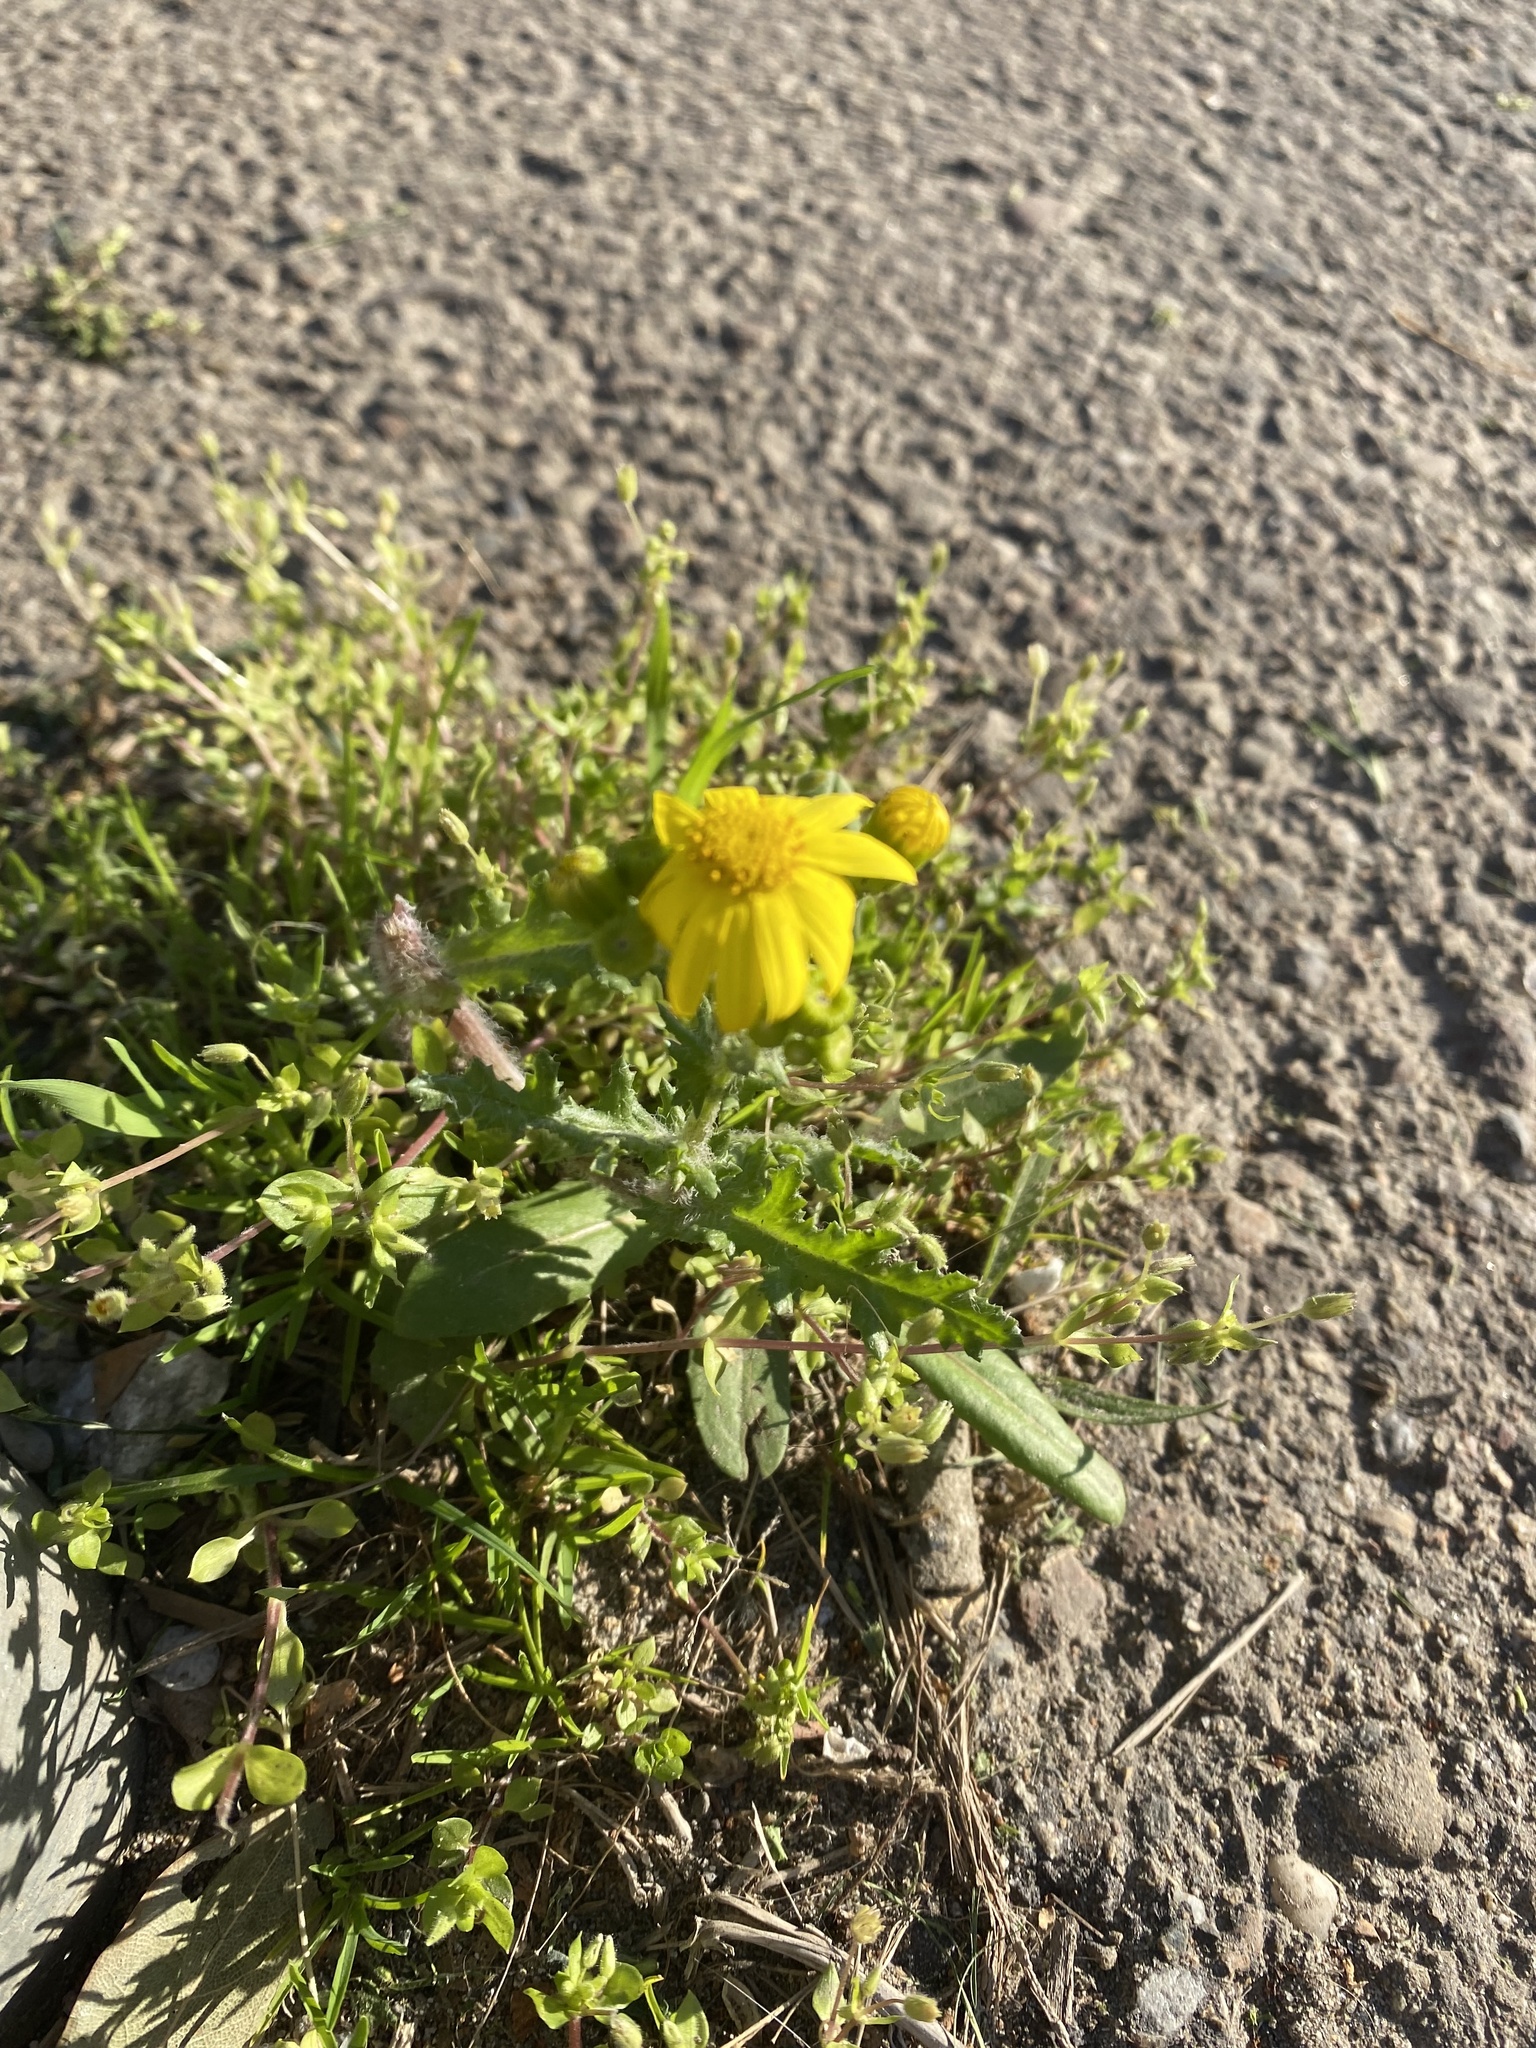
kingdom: Plantae
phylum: Tracheophyta
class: Magnoliopsida
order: Asterales
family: Asteraceae
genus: Senecio
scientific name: Senecio vernalis
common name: Eastern groundsel
